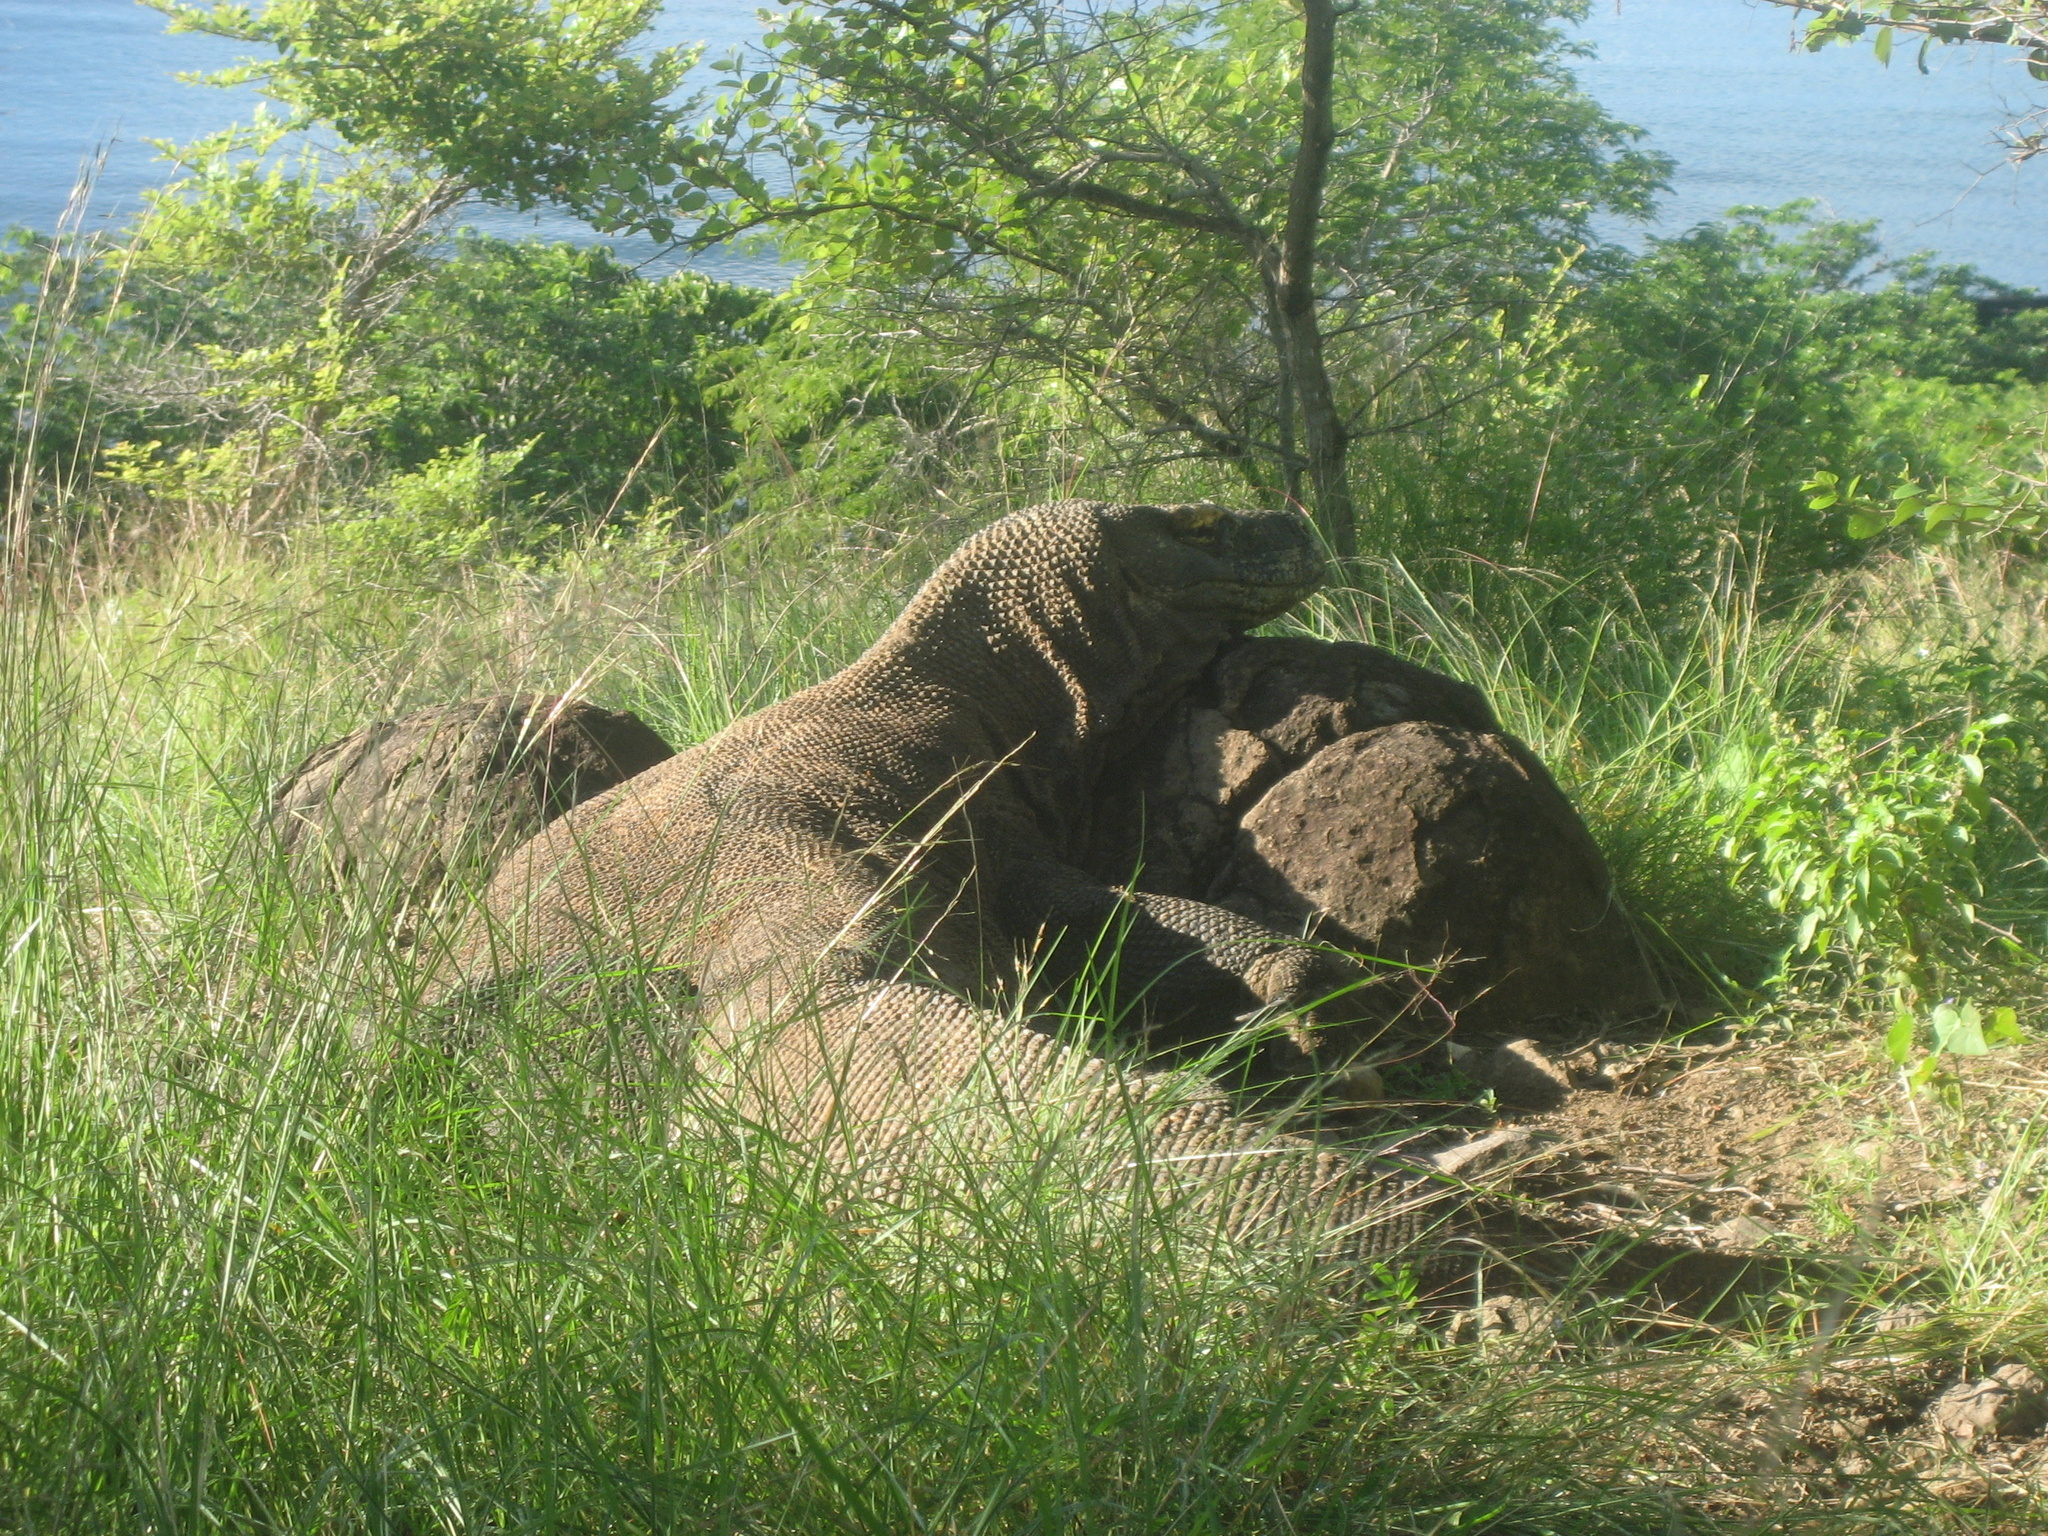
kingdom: Animalia
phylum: Chordata
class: Squamata
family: Varanidae
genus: Varanus
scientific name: Varanus komodoensis
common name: Komodo dragon
